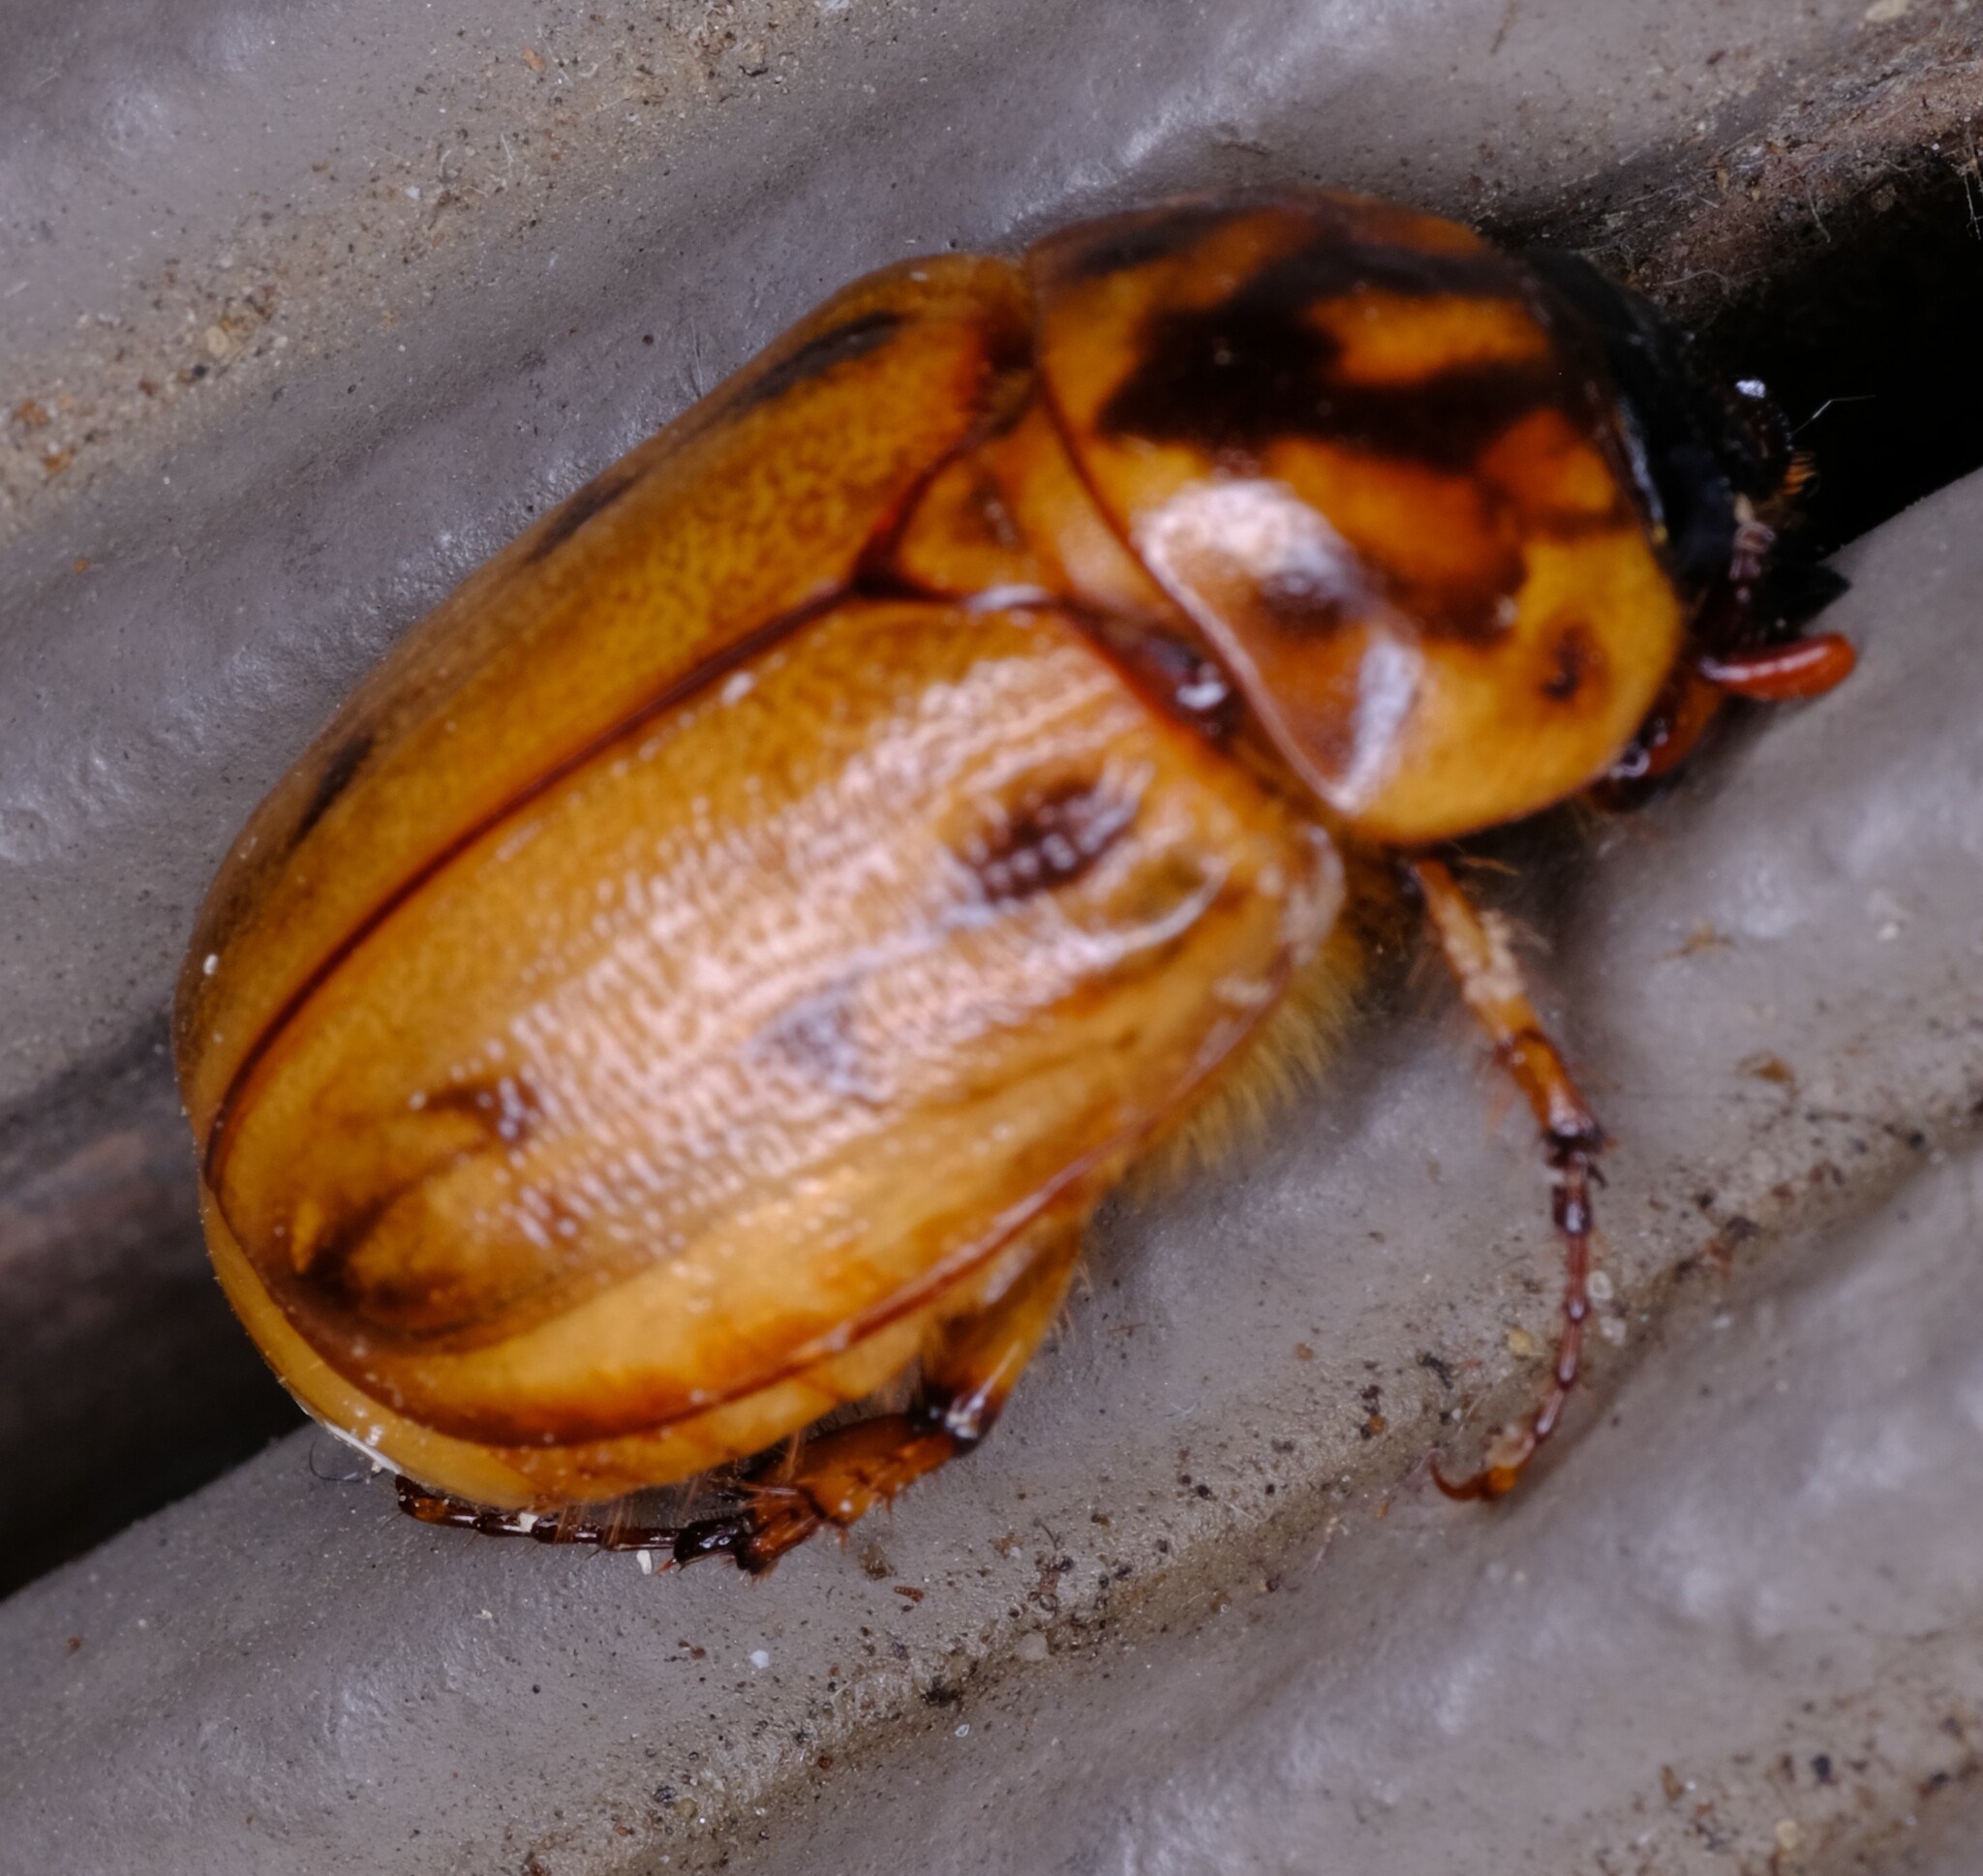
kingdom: Animalia
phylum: Arthropoda
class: Insecta
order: Coleoptera
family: Scarabaeidae
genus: Cyclocephala
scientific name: Cyclocephala signaticollis
